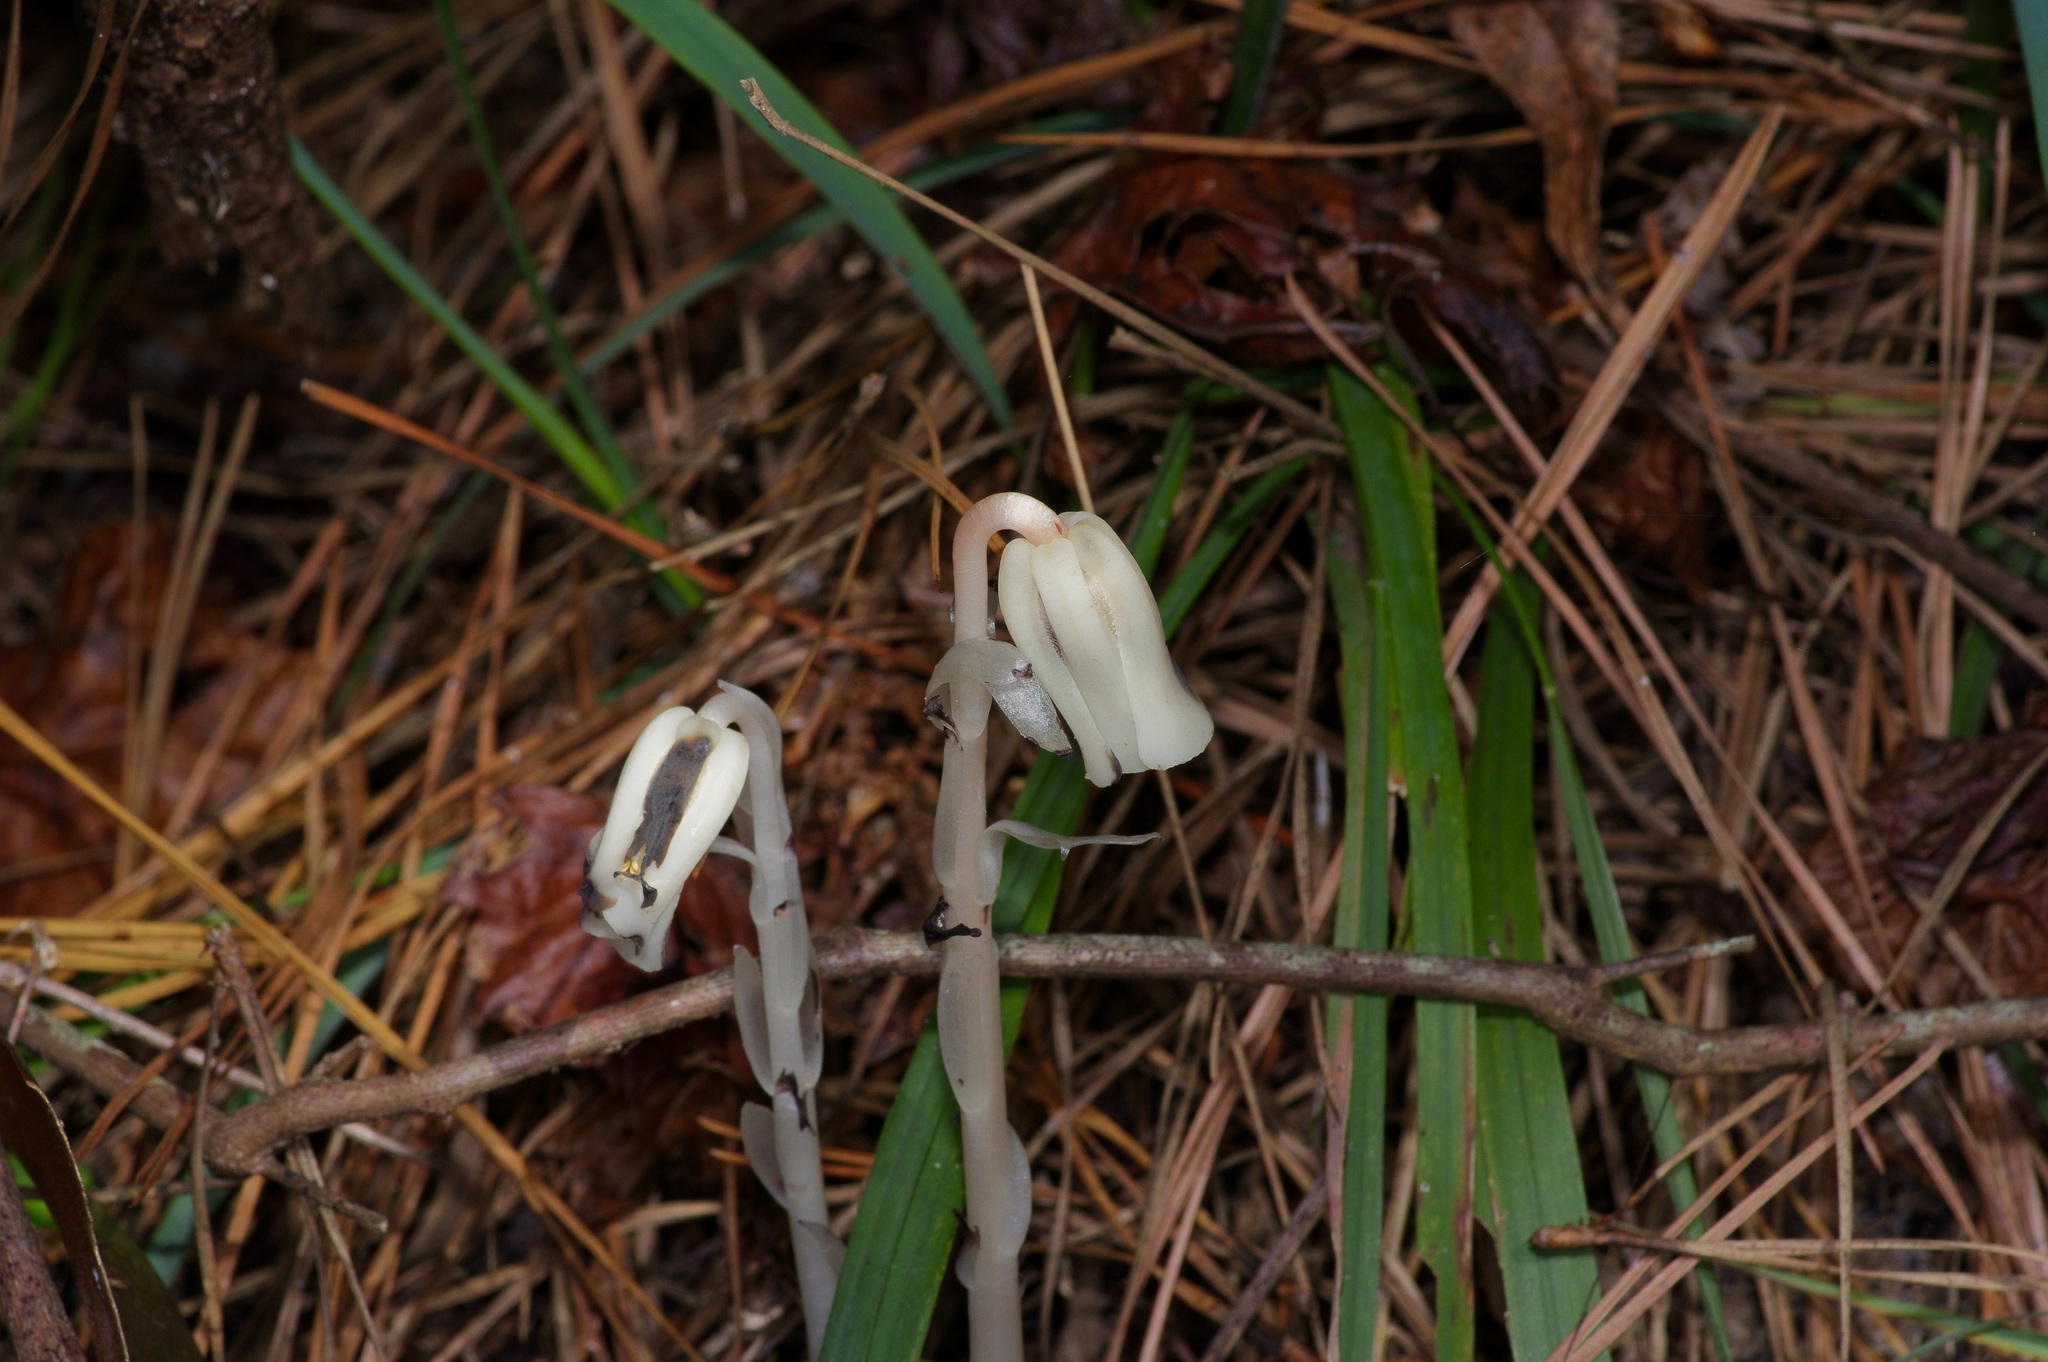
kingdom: Plantae
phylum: Tracheophyta
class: Magnoliopsida
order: Ericales
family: Ericaceae
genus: Monotropa
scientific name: Monotropa uniflora
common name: Convulsion root
